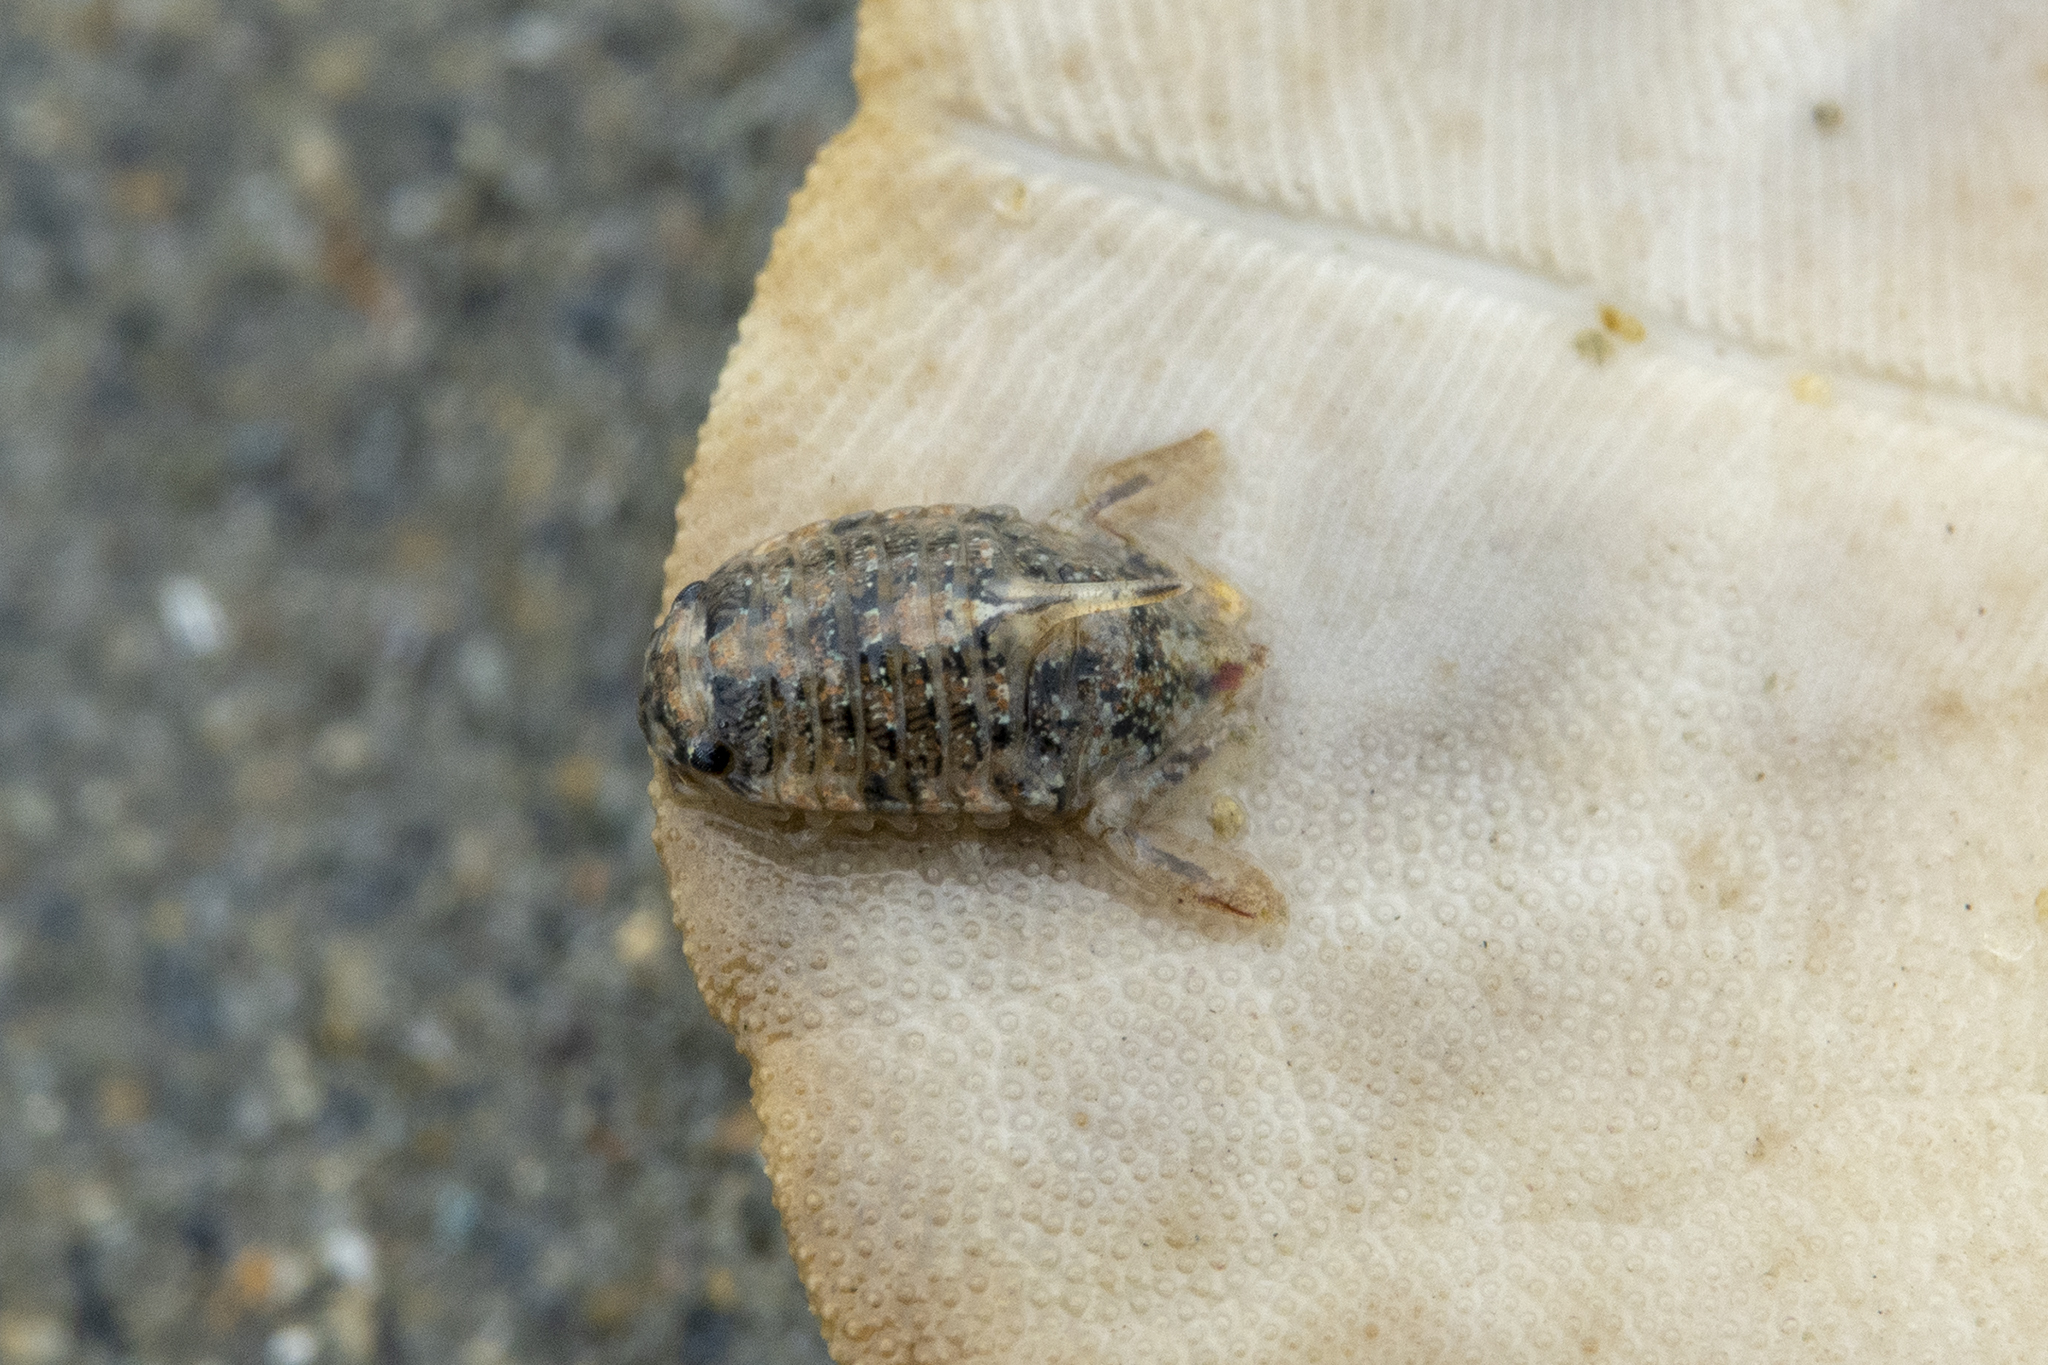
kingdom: Animalia
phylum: Arthropoda
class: Malacostraca
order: Isopoda
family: Sphaeromatidae
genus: Isocladus
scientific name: Isocladus armatus
